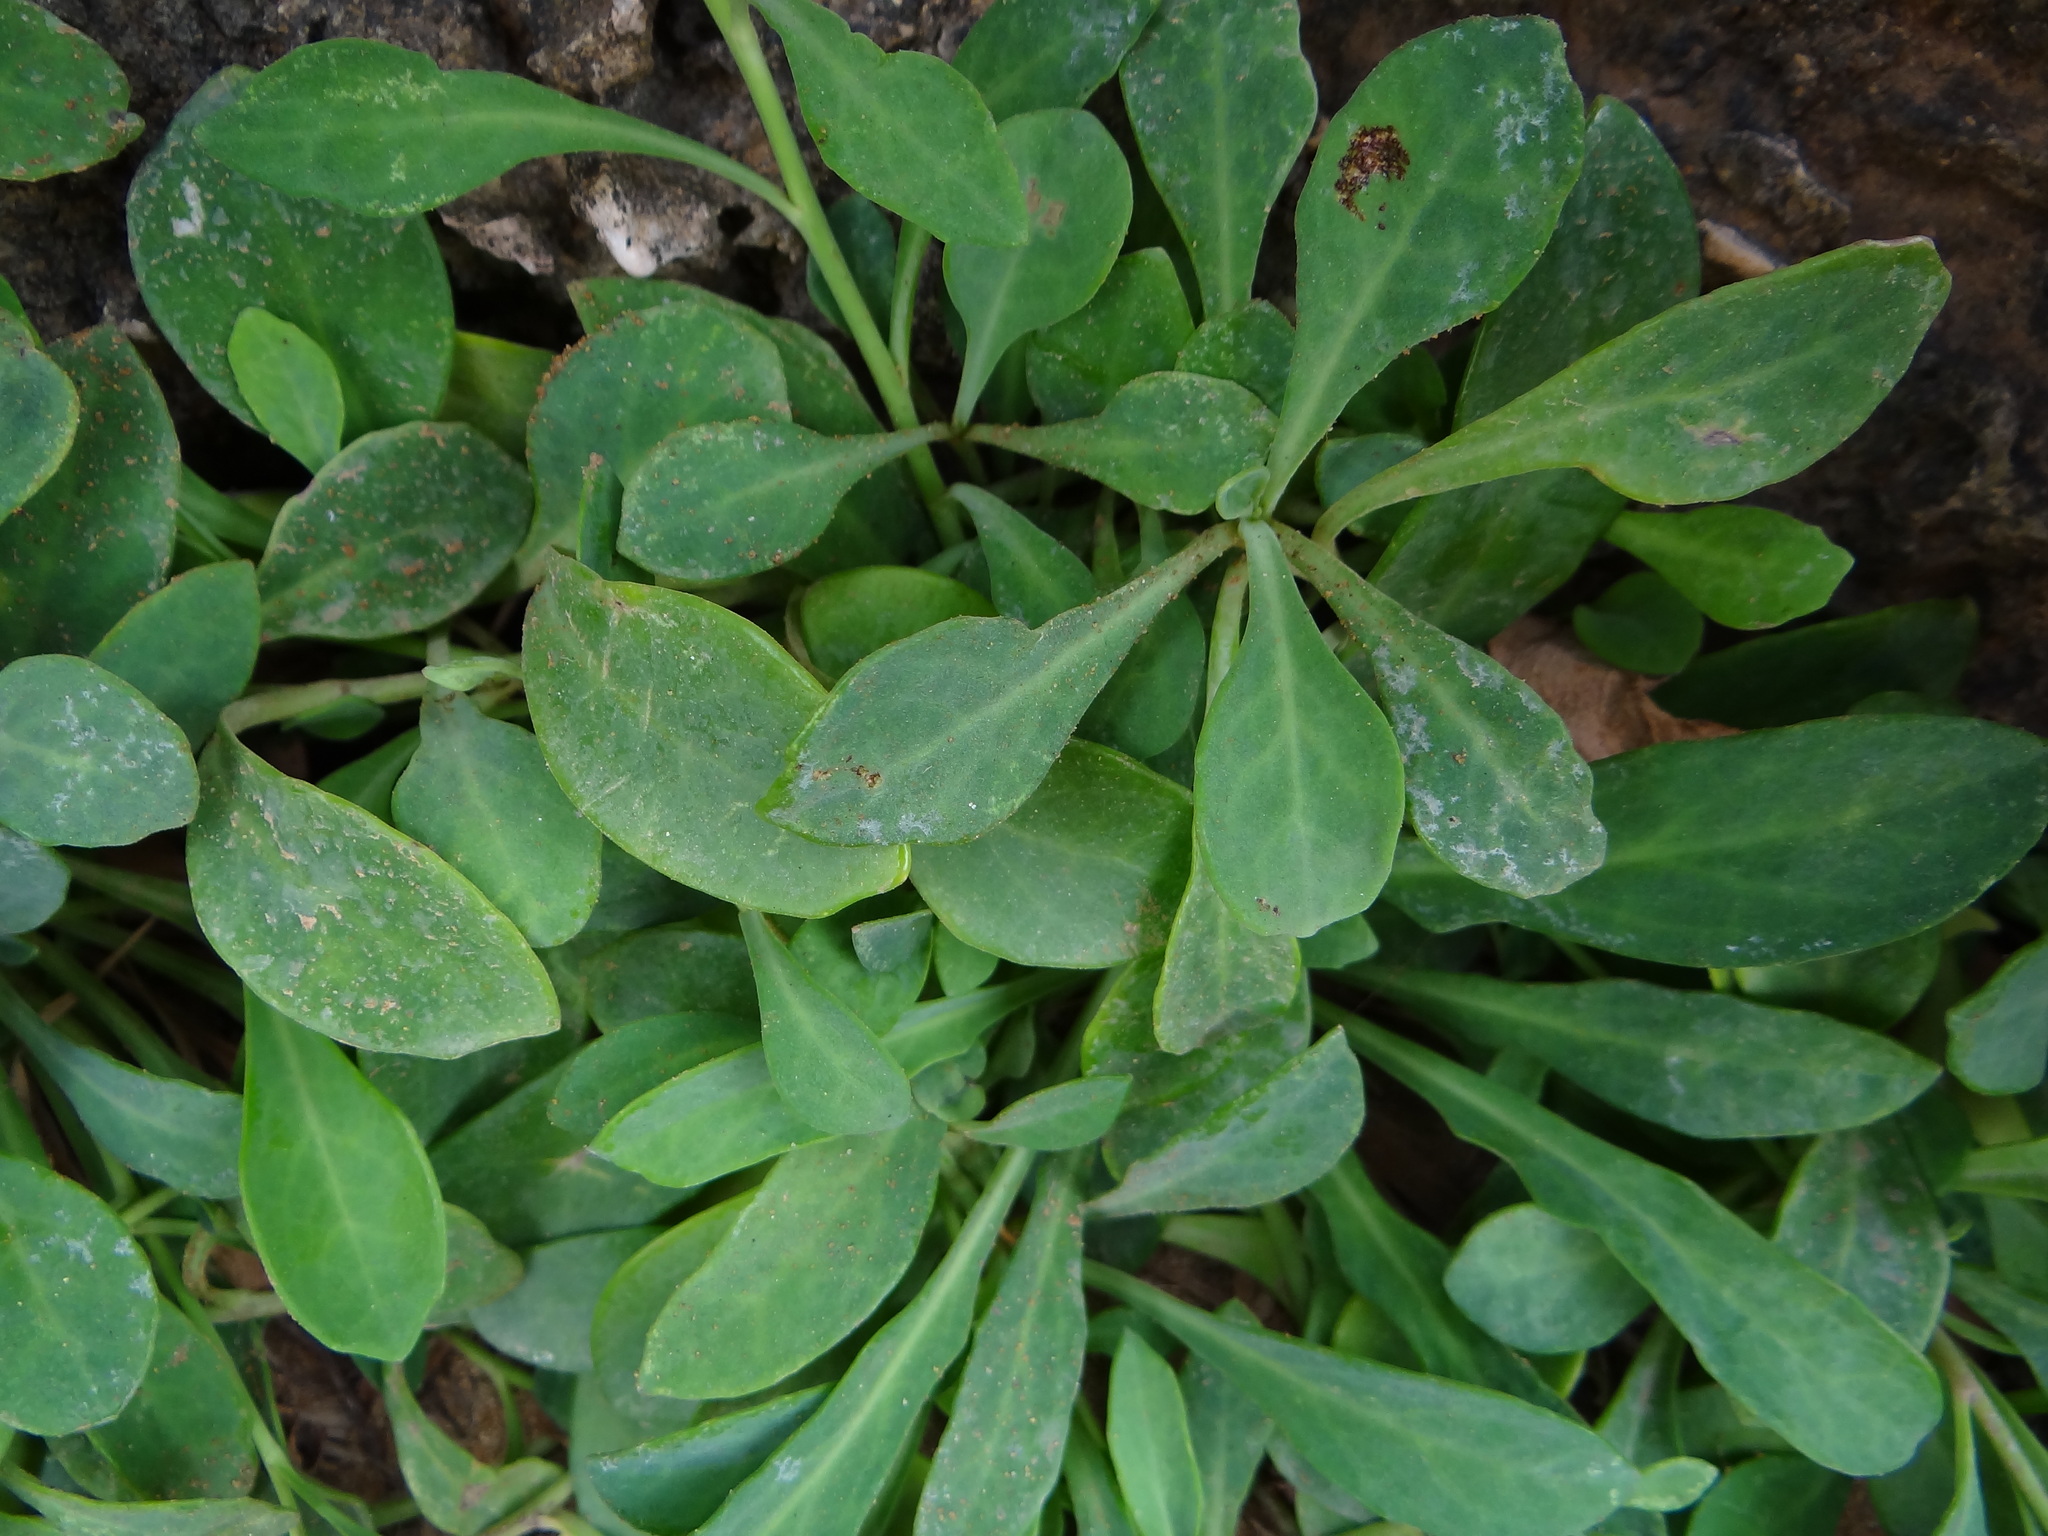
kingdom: Plantae
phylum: Tracheophyta
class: Magnoliopsida
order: Asterales
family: Asteraceae
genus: Crepidiastrum
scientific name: Crepidiastrum lanceolatum
